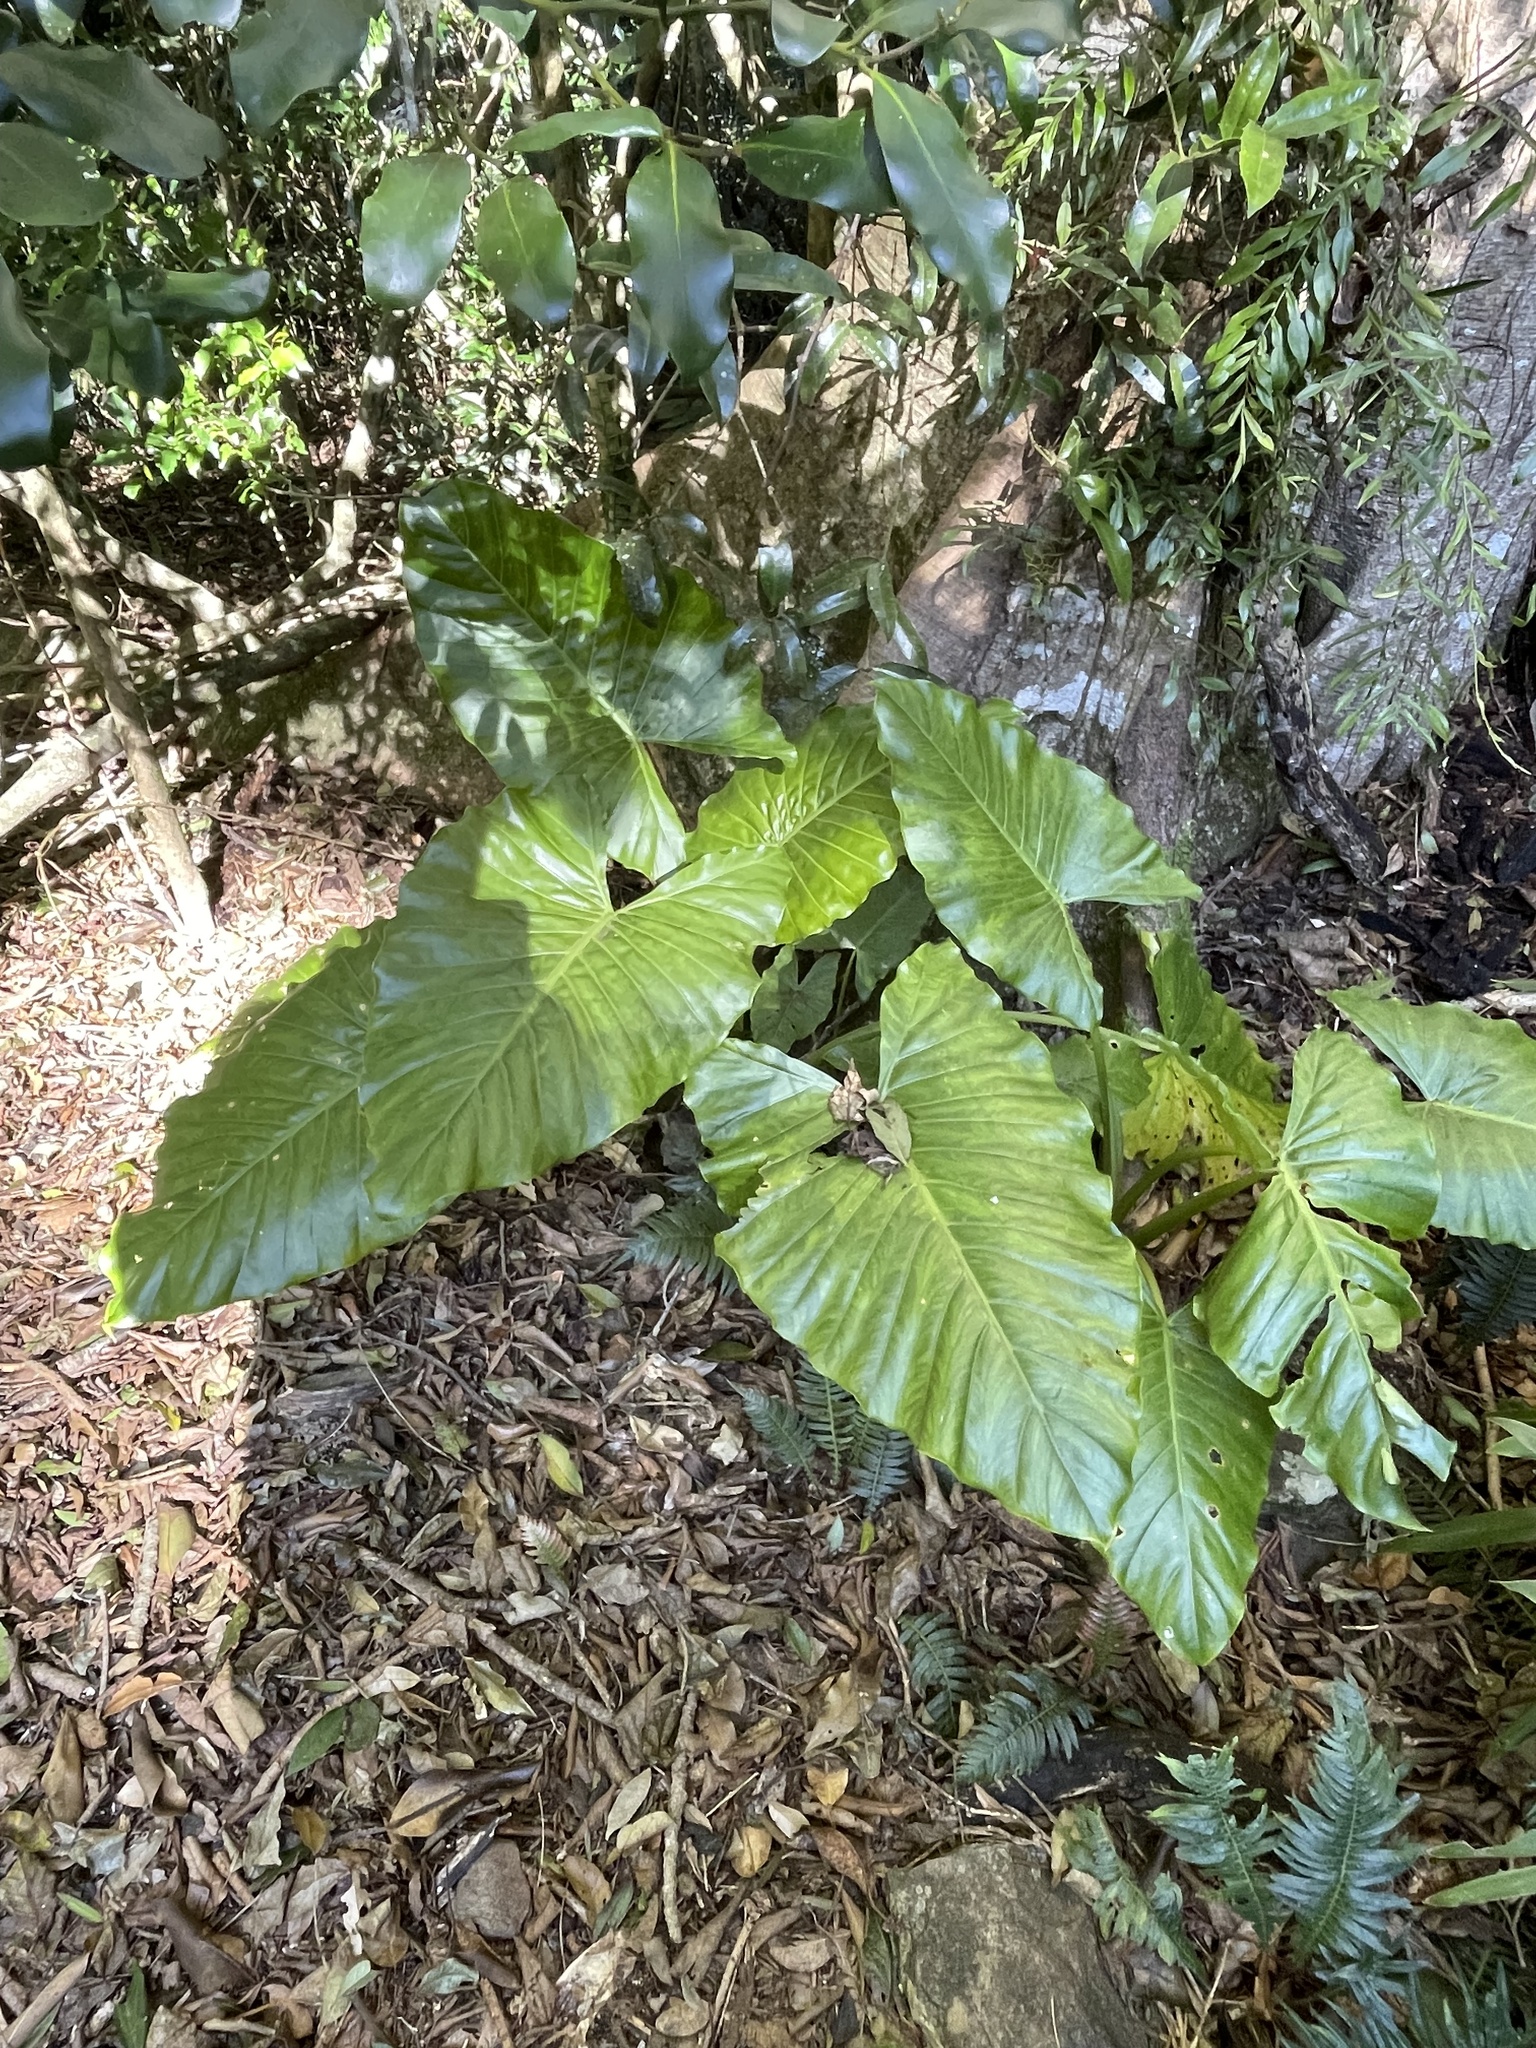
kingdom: Plantae
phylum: Tracheophyta
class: Liliopsida
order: Alismatales
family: Araceae
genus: Alocasia
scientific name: Alocasia brisbanensis
